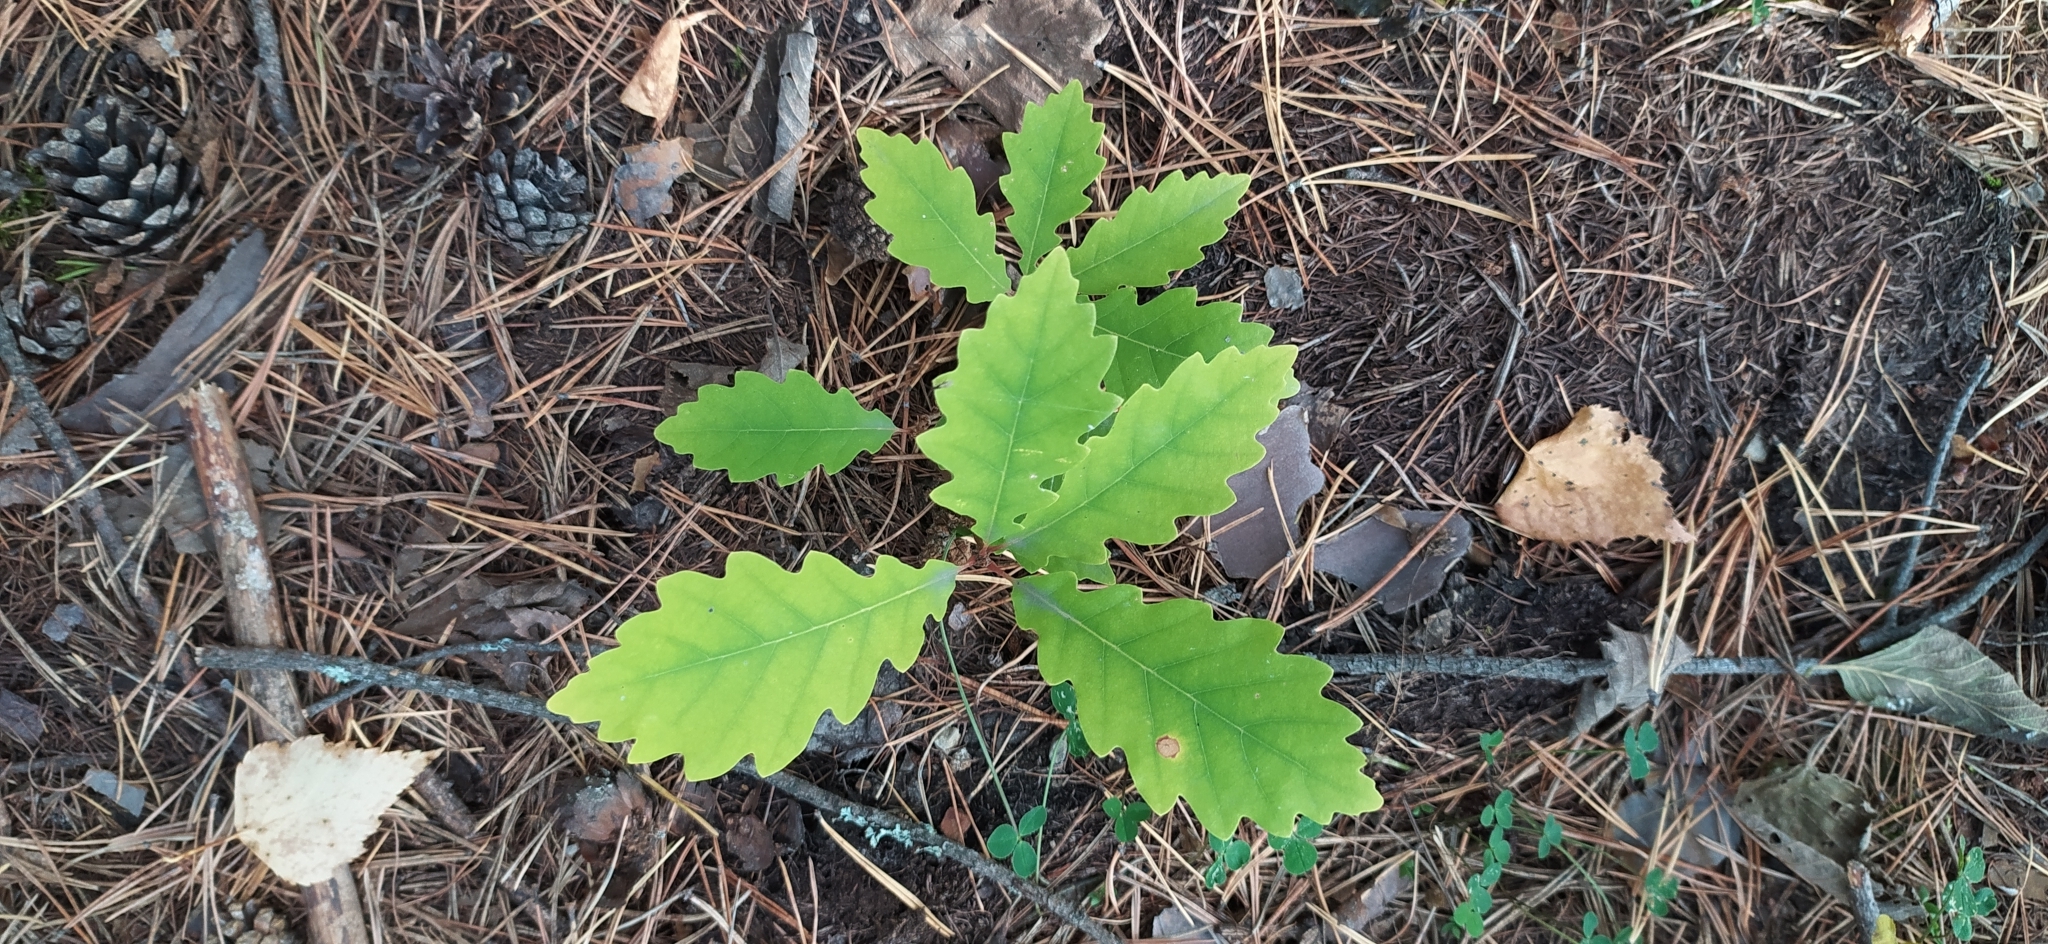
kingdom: Plantae
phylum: Tracheophyta
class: Magnoliopsida
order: Fagales
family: Fagaceae
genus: Quercus
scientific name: Quercus robur
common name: Pedunculate oak
